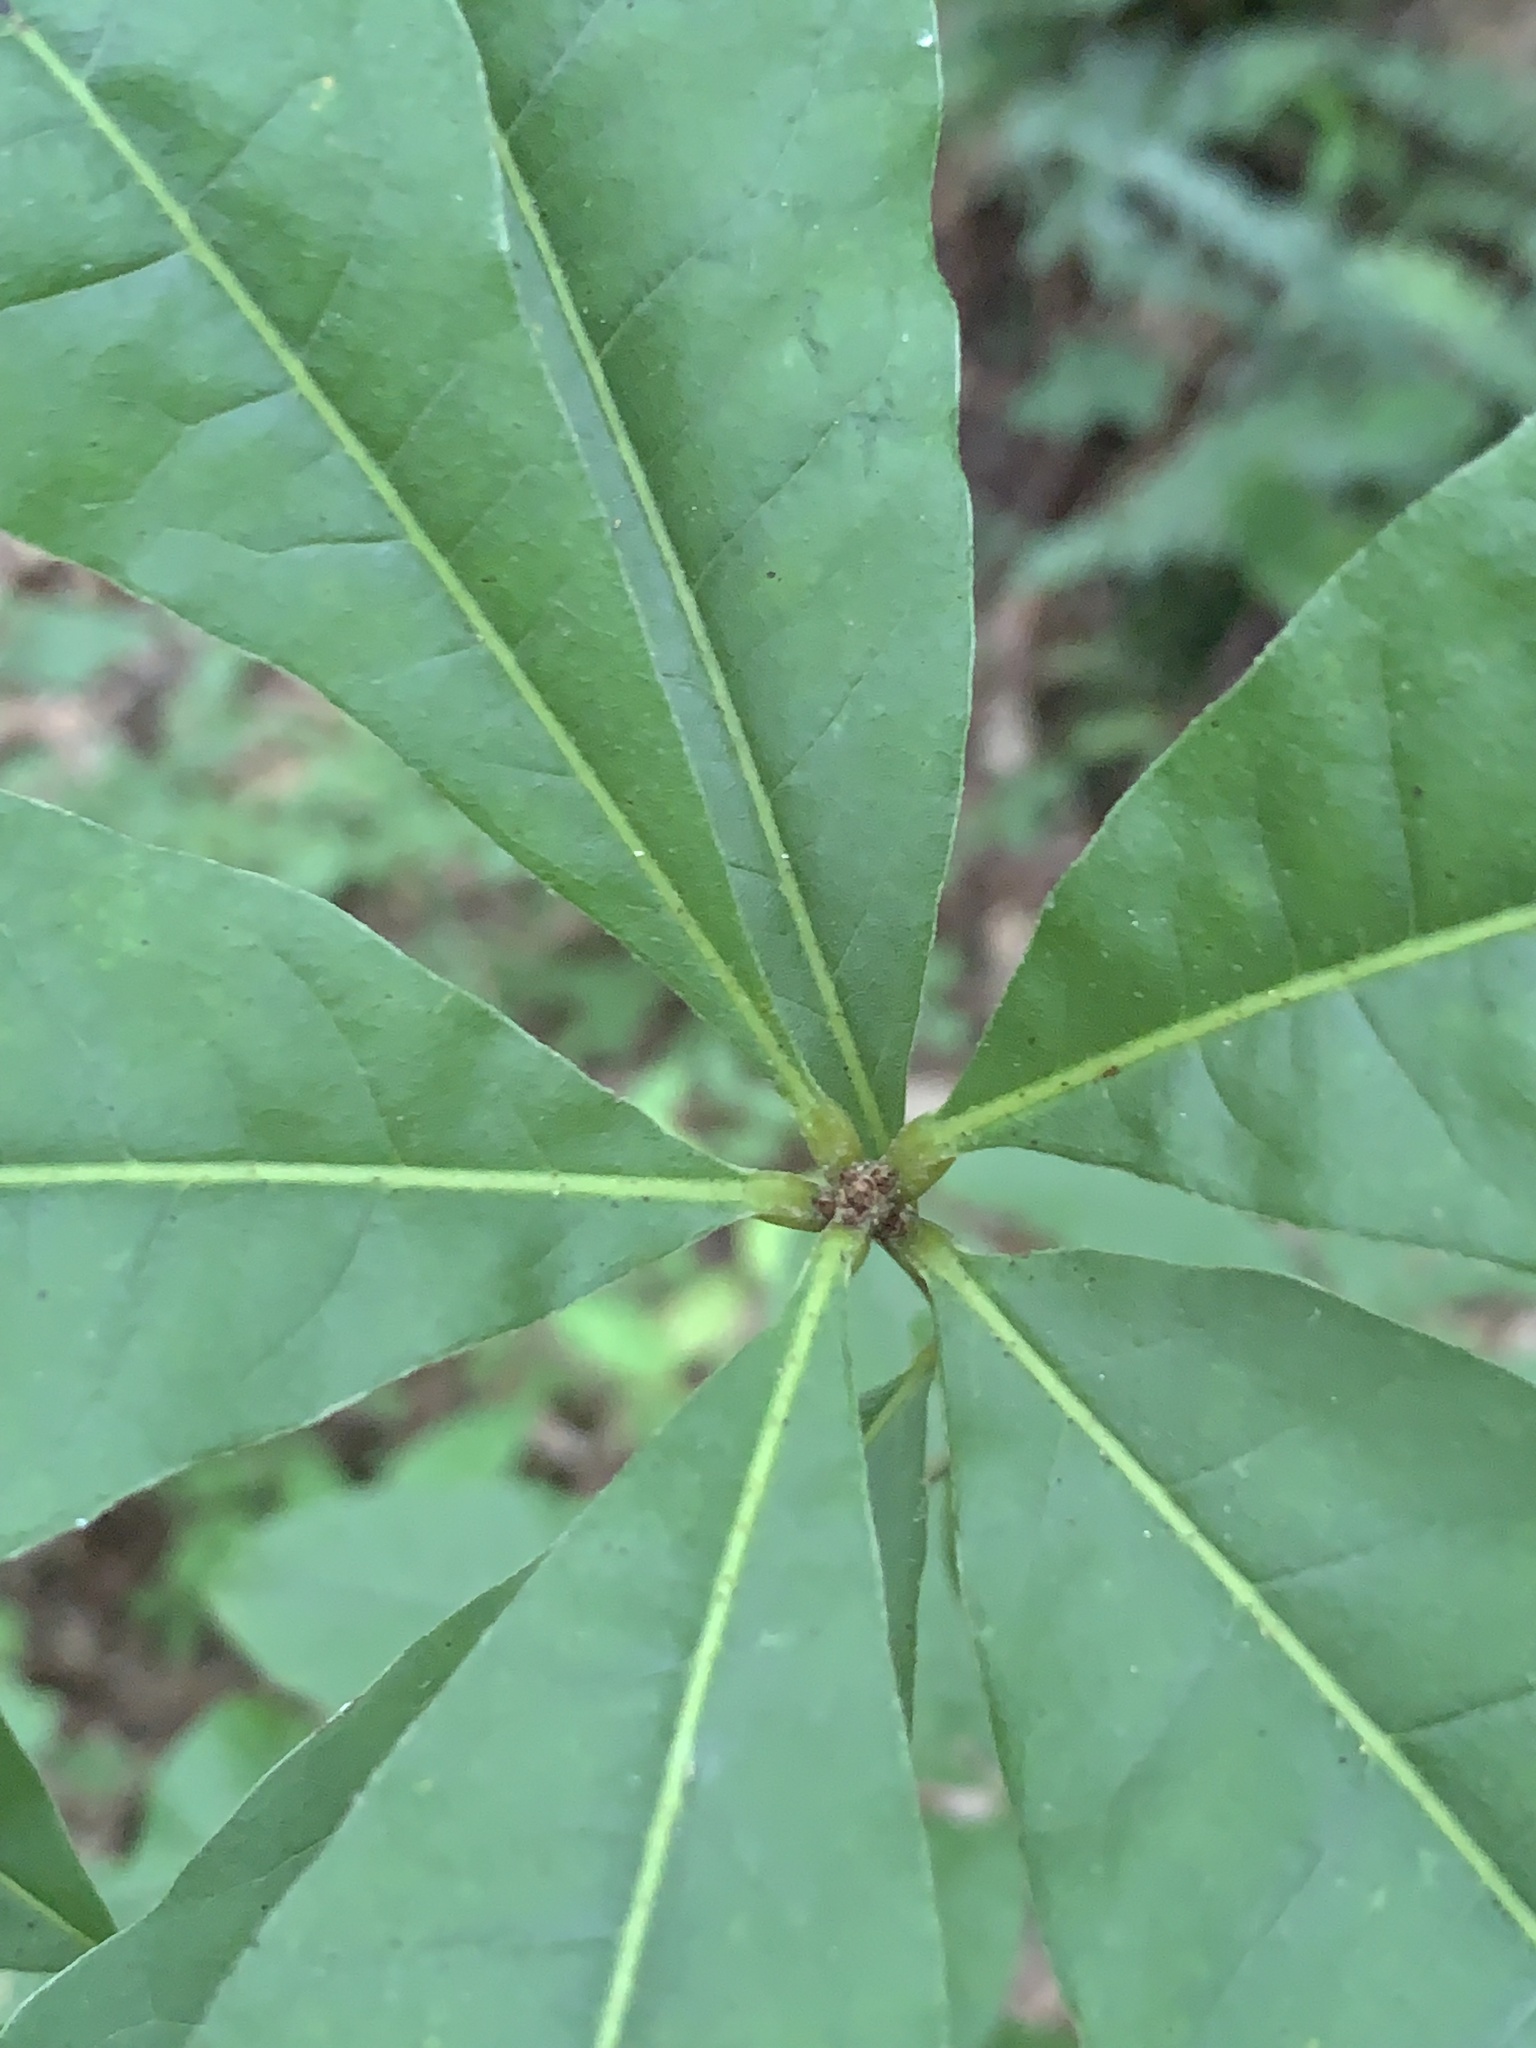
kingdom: Plantae
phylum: Tracheophyta
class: Magnoliopsida
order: Fagales
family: Fagaceae
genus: Quercus
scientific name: Quercus imbricaria
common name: Shingle oak
